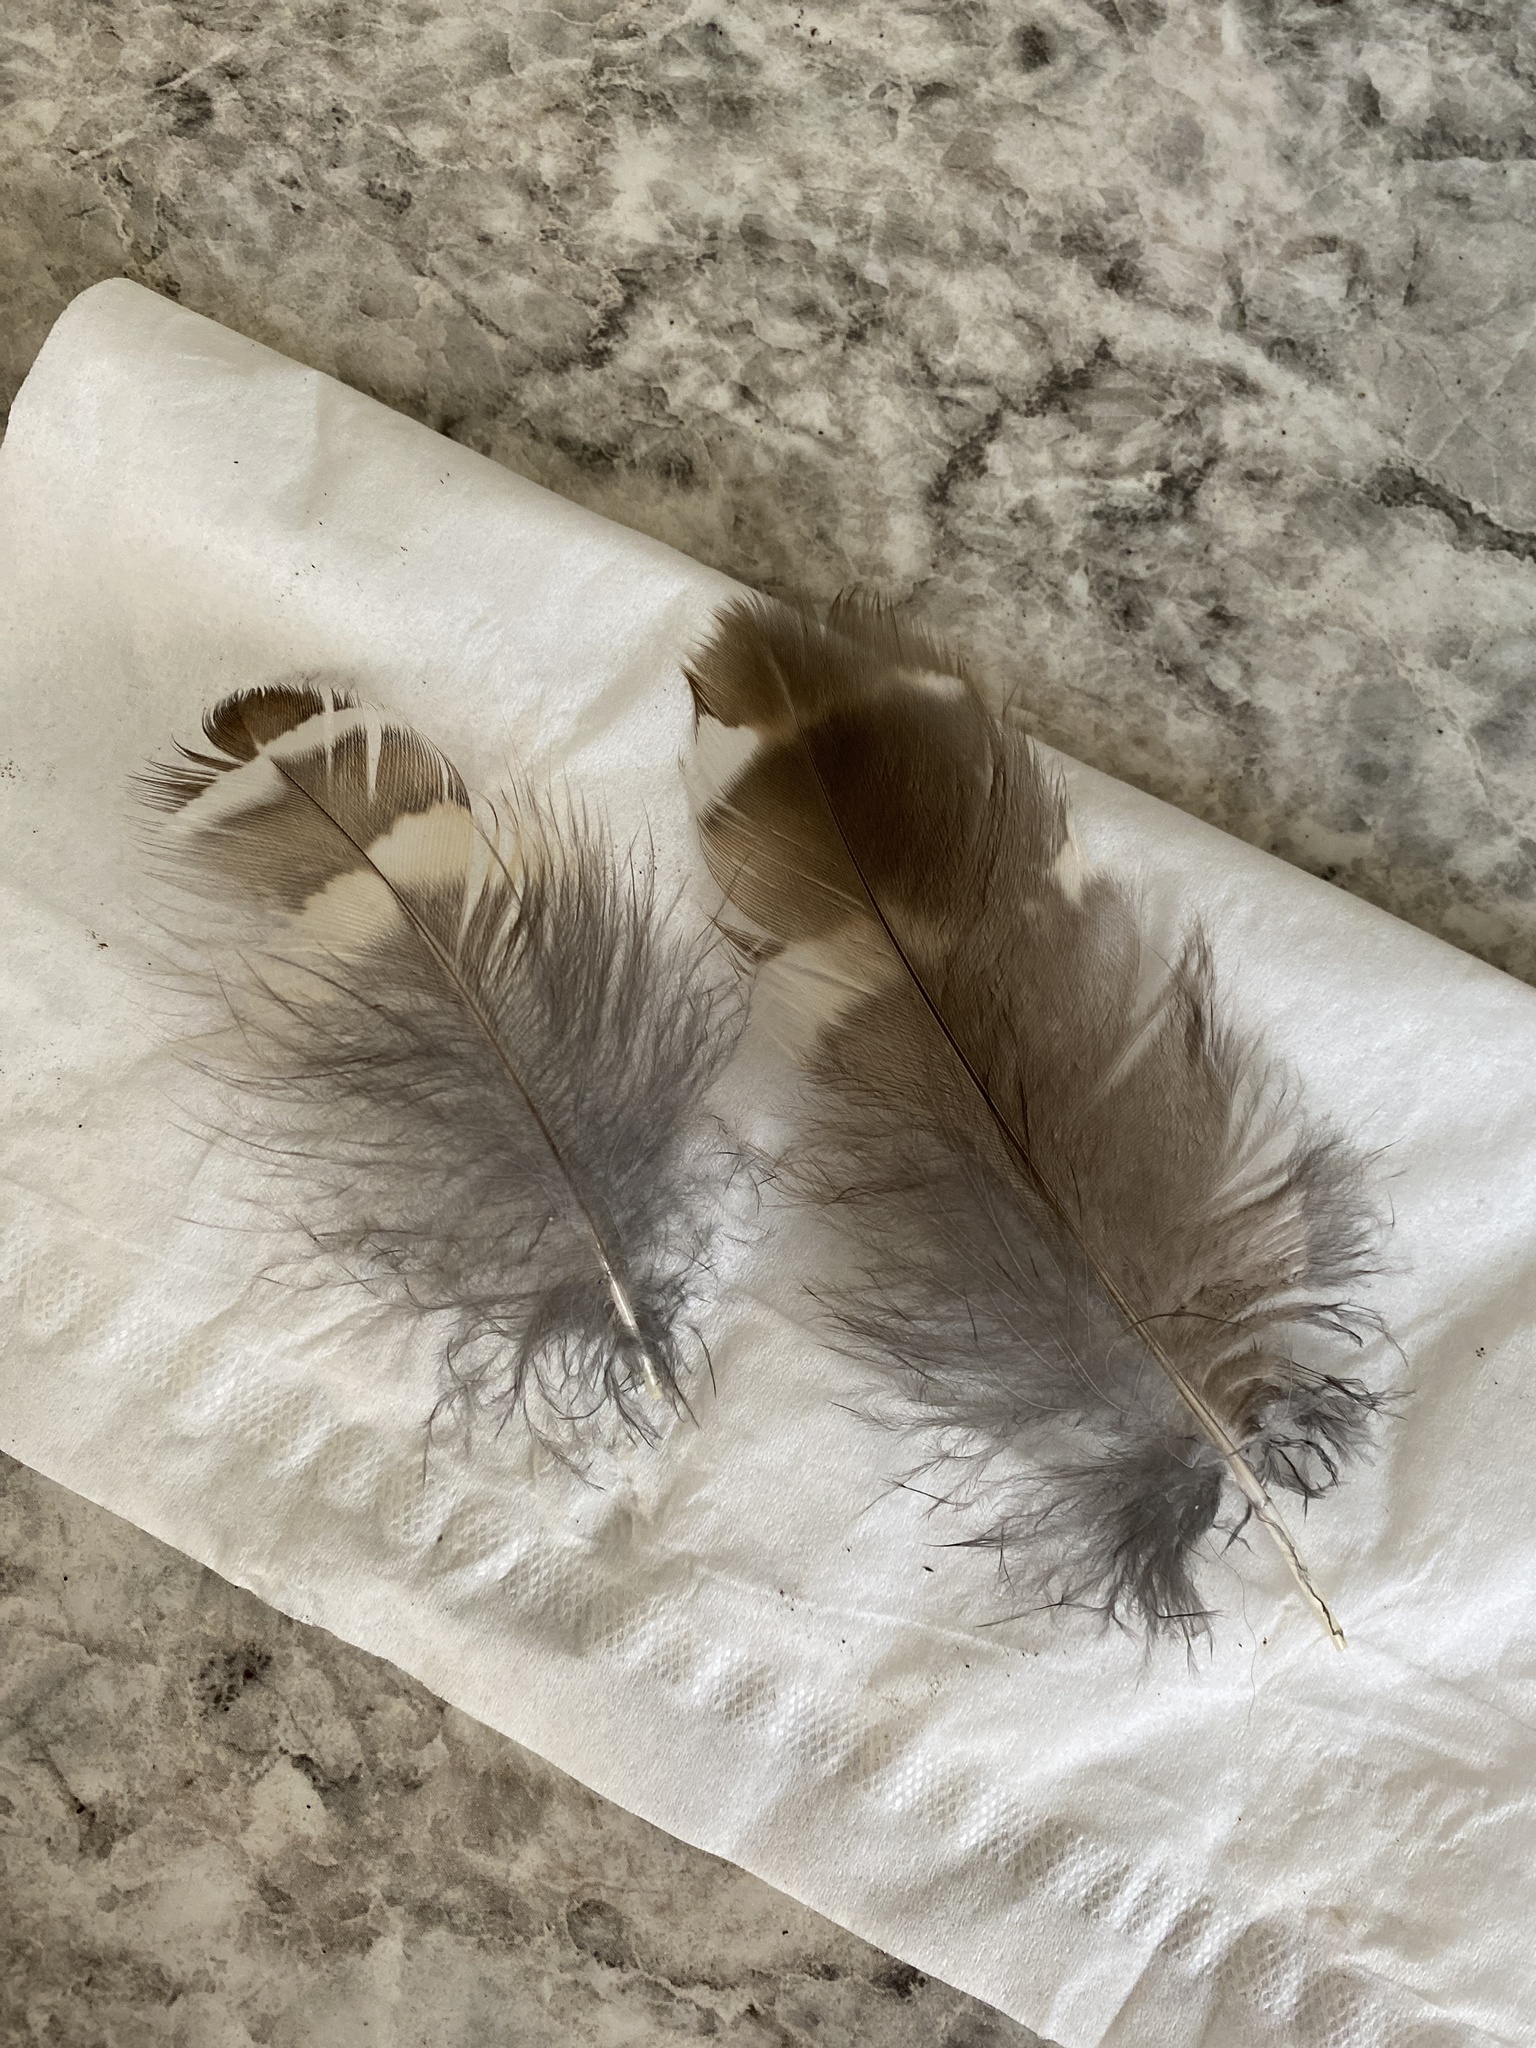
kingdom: Animalia
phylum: Chordata
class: Aves
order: Strigiformes
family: Strigidae
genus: Strix
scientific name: Strix varia
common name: Barred owl
